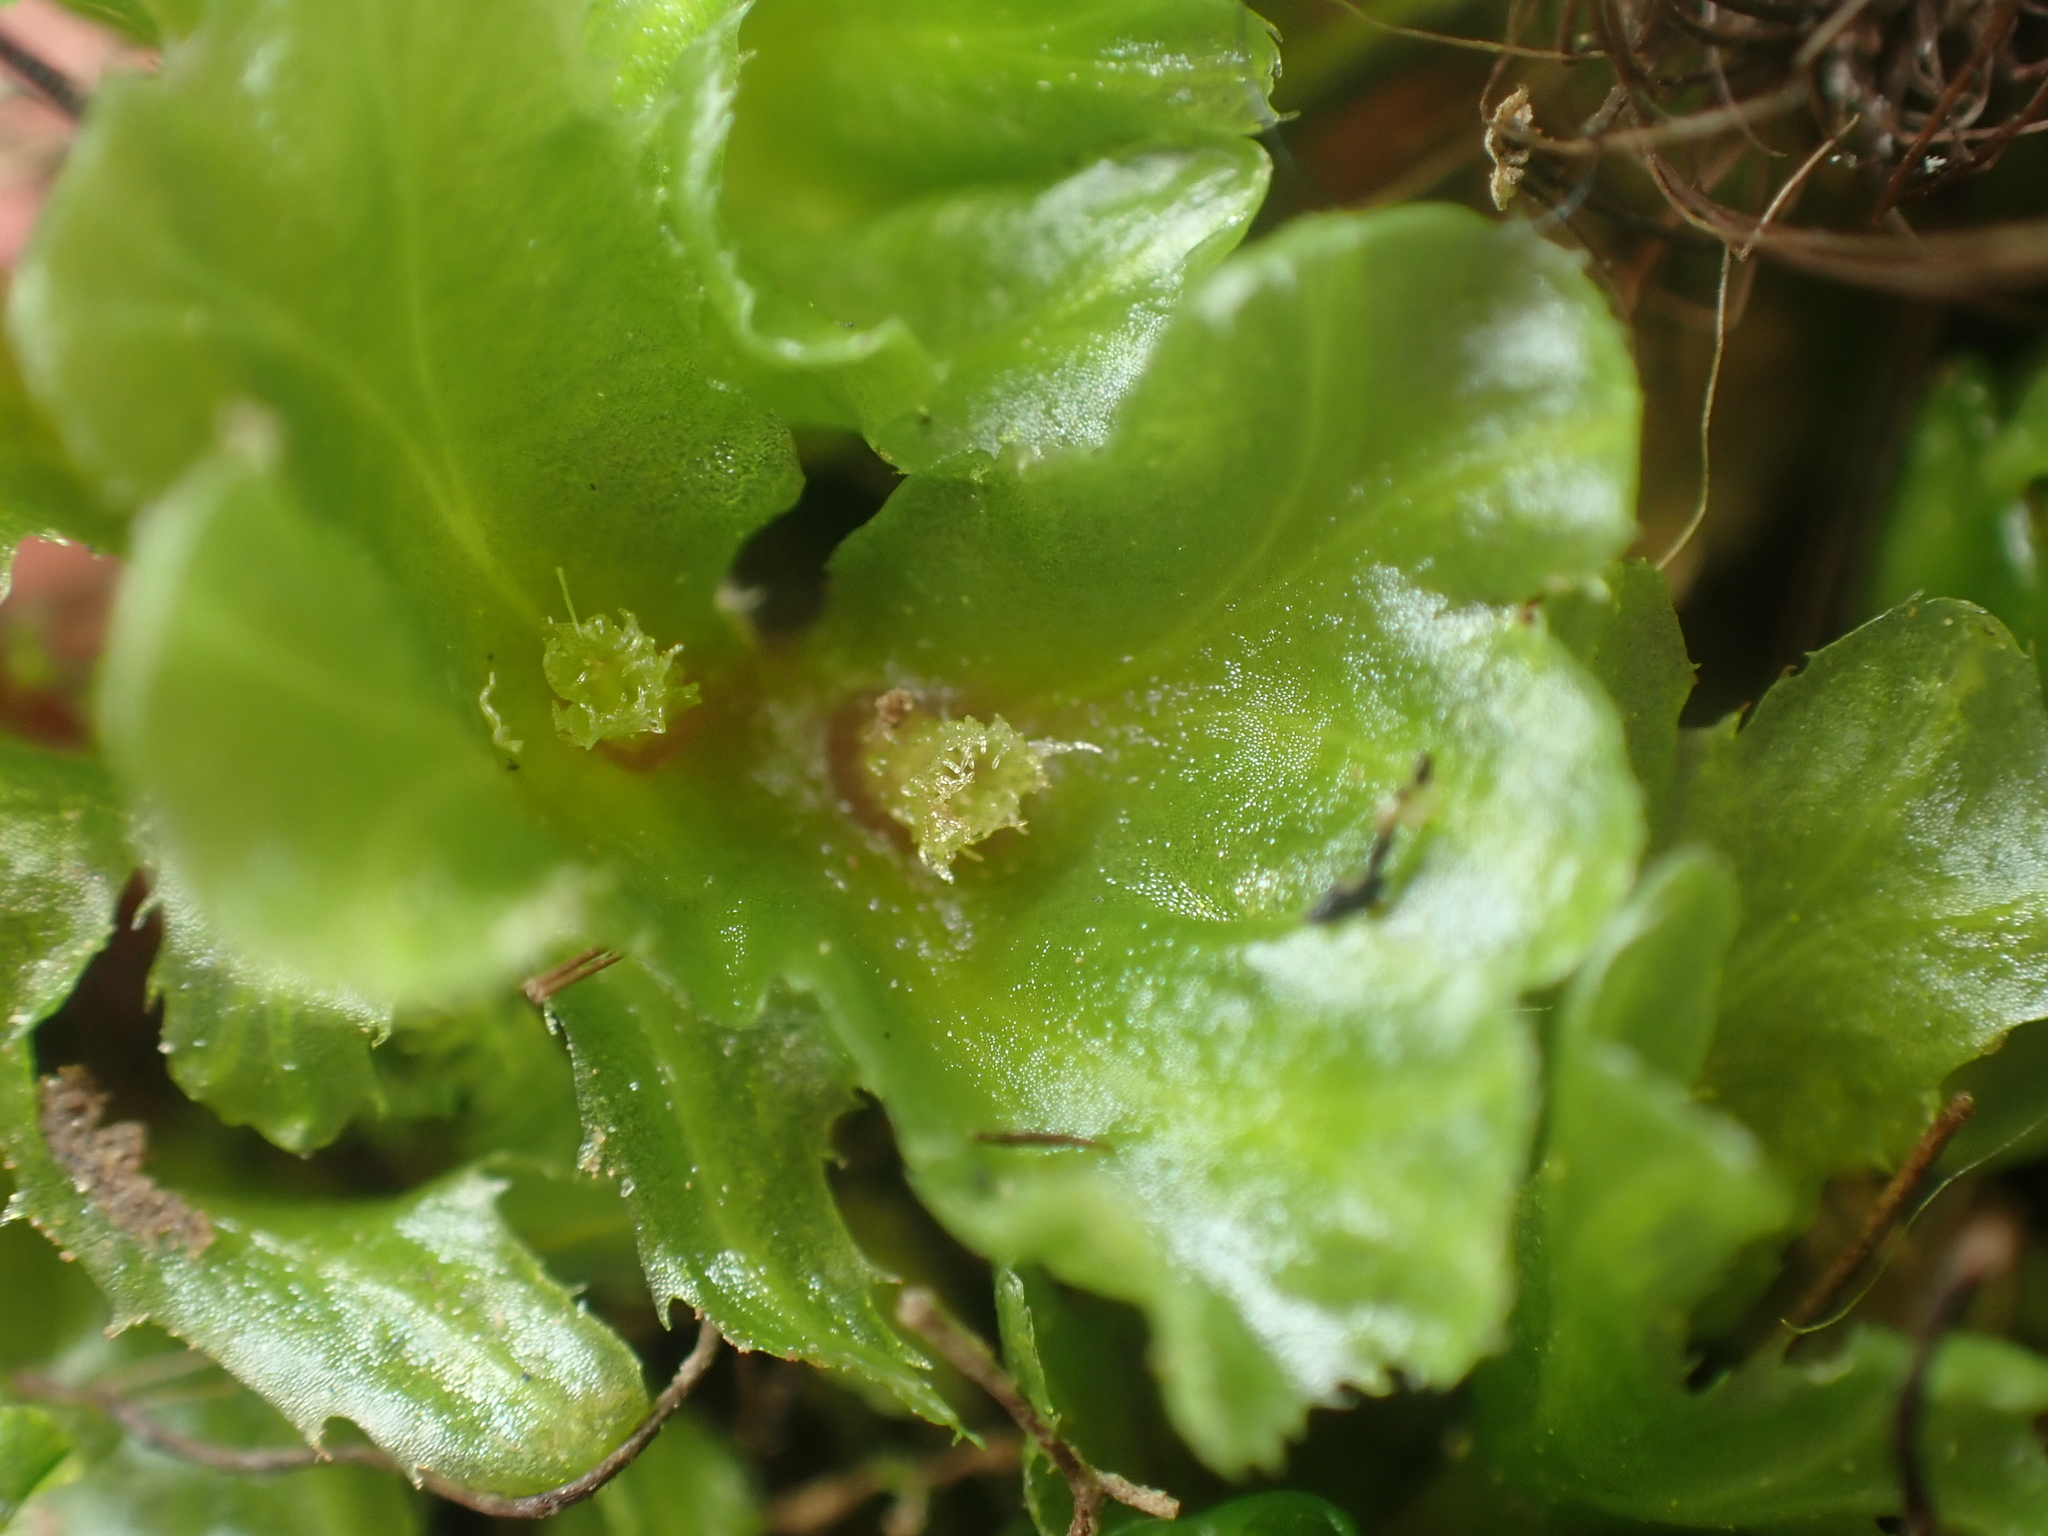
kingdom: Plantae
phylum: Marchantiophyta
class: Jungermanniopsida
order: Pallaviciniales
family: Pallaviciniaceae
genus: Jensenia
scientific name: Jensenia connivens
